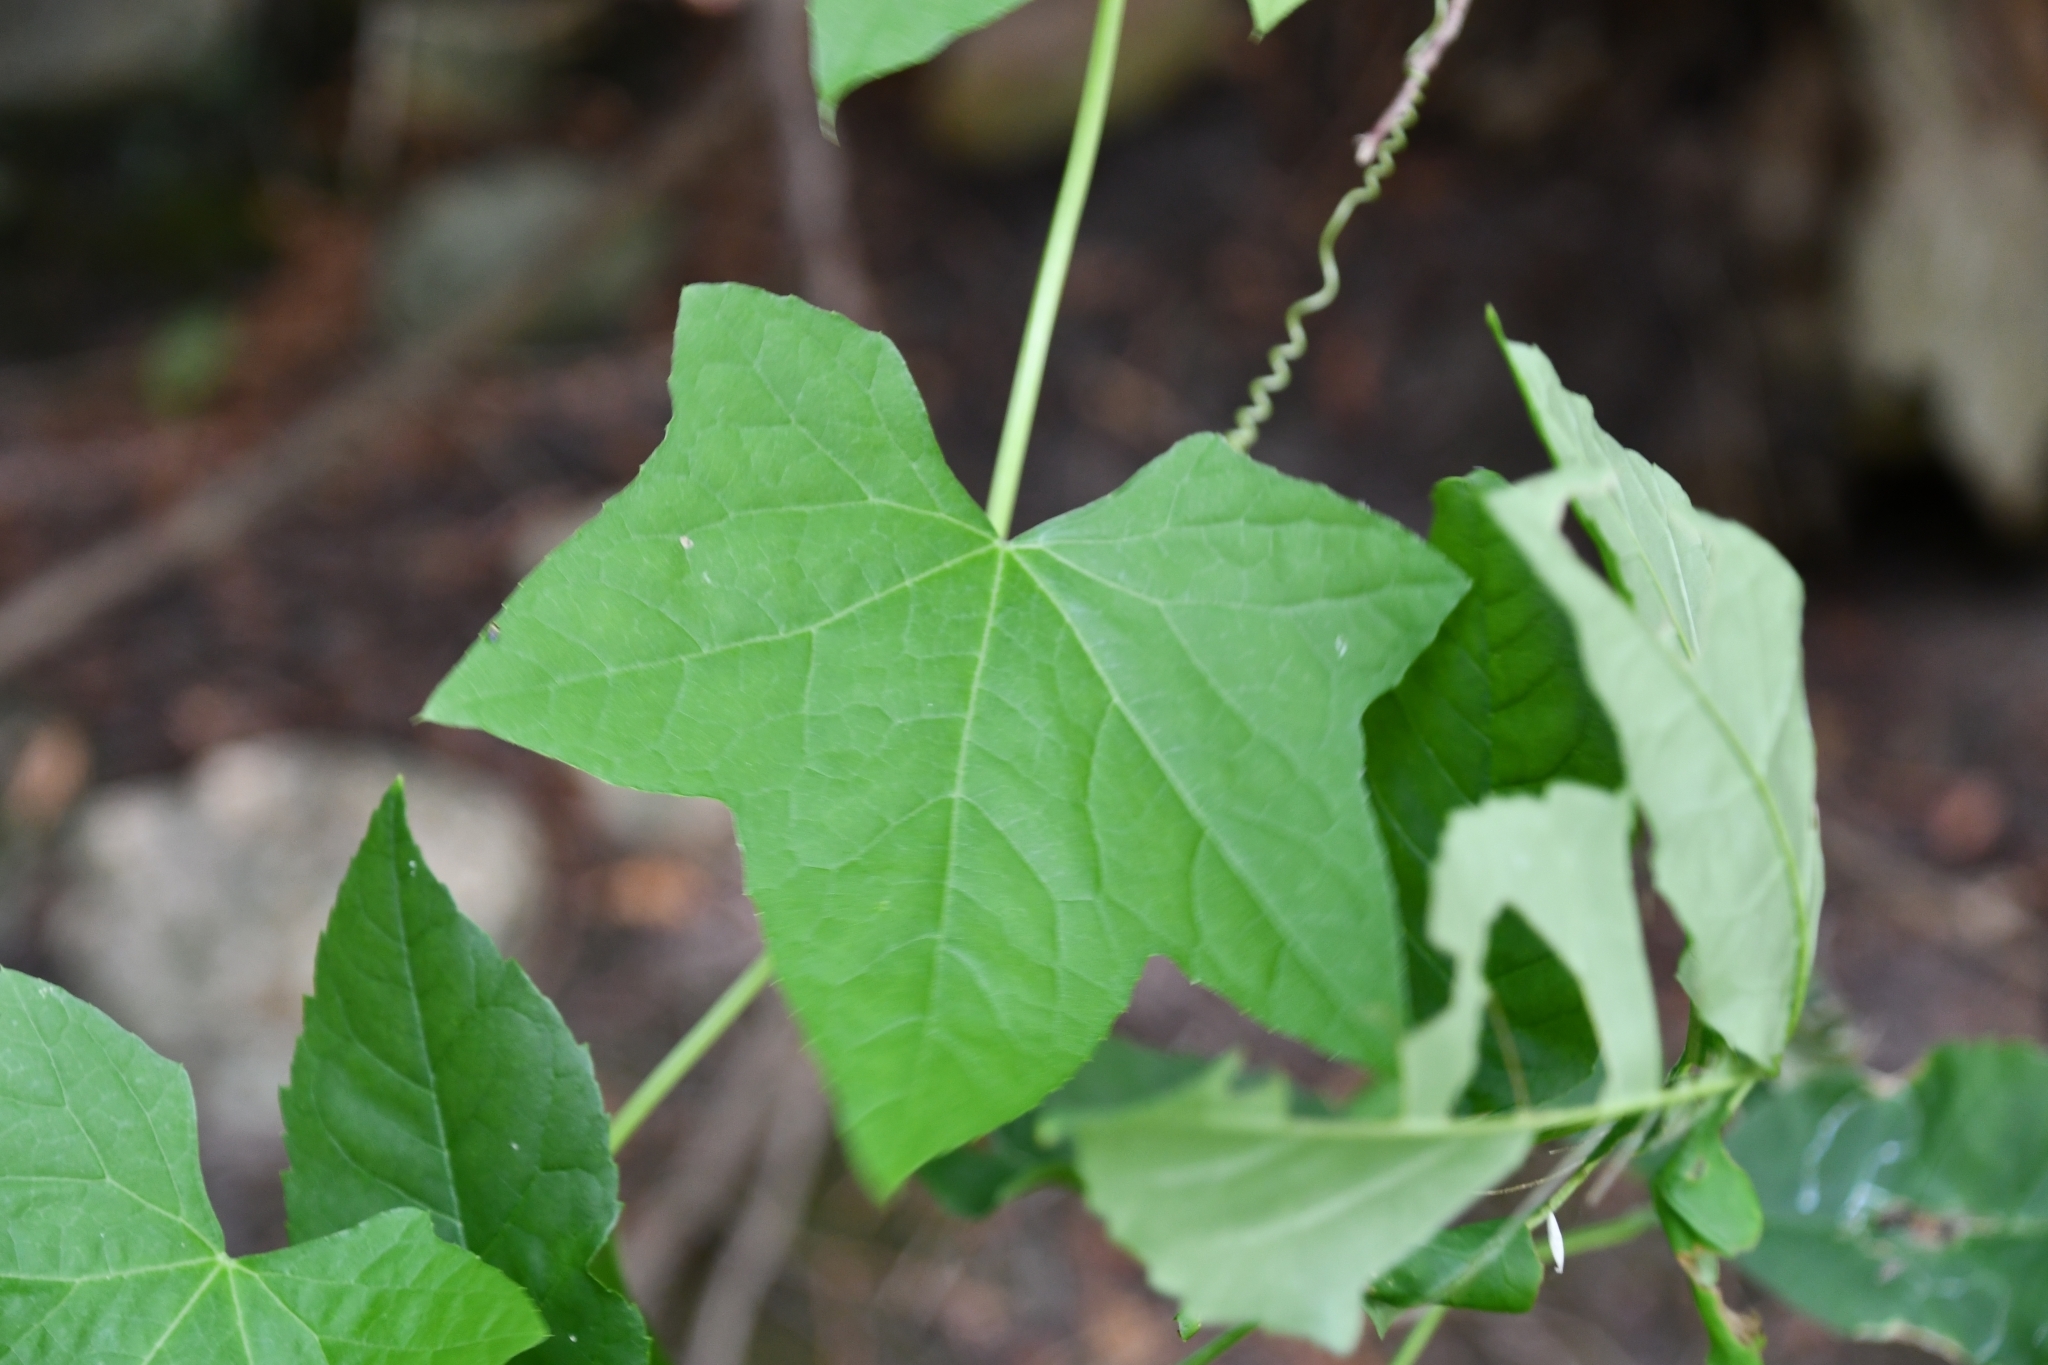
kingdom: Plantae
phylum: Tracheophyta
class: Magnoliopsida
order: Cucurbitales
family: Cucurbitaceae
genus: Echinocystis
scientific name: Echinocystis lobata
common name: Wild cucumber
